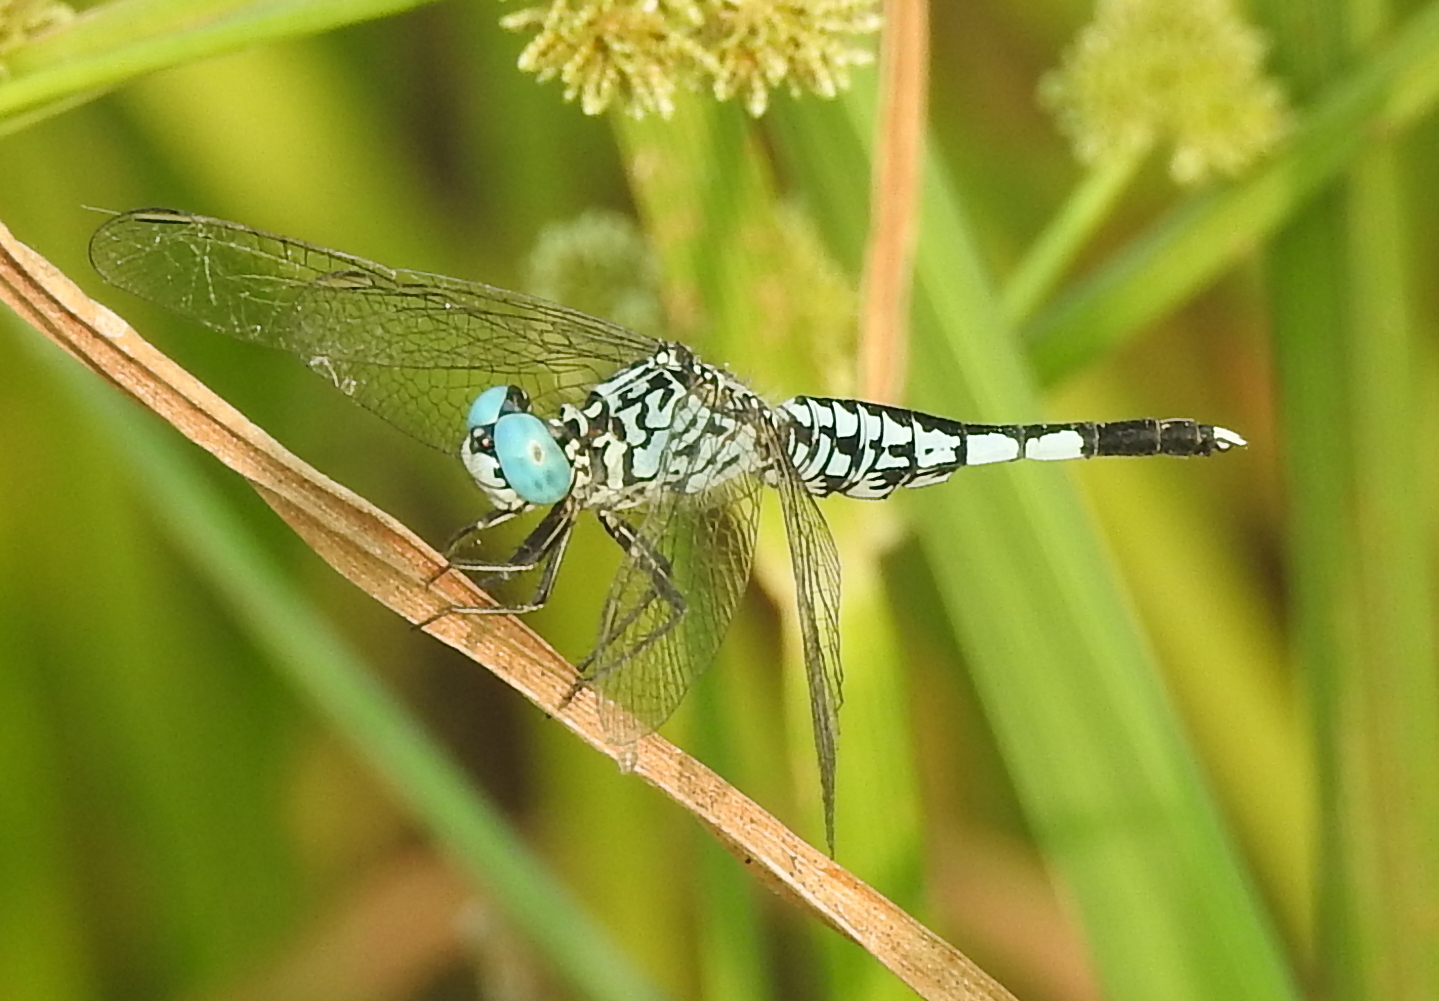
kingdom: Animalia
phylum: Arthropoda
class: Insecta
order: Odonata
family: Libellulidae
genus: Acisoma
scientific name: Acisoma panorpoides
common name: Asian pintail
